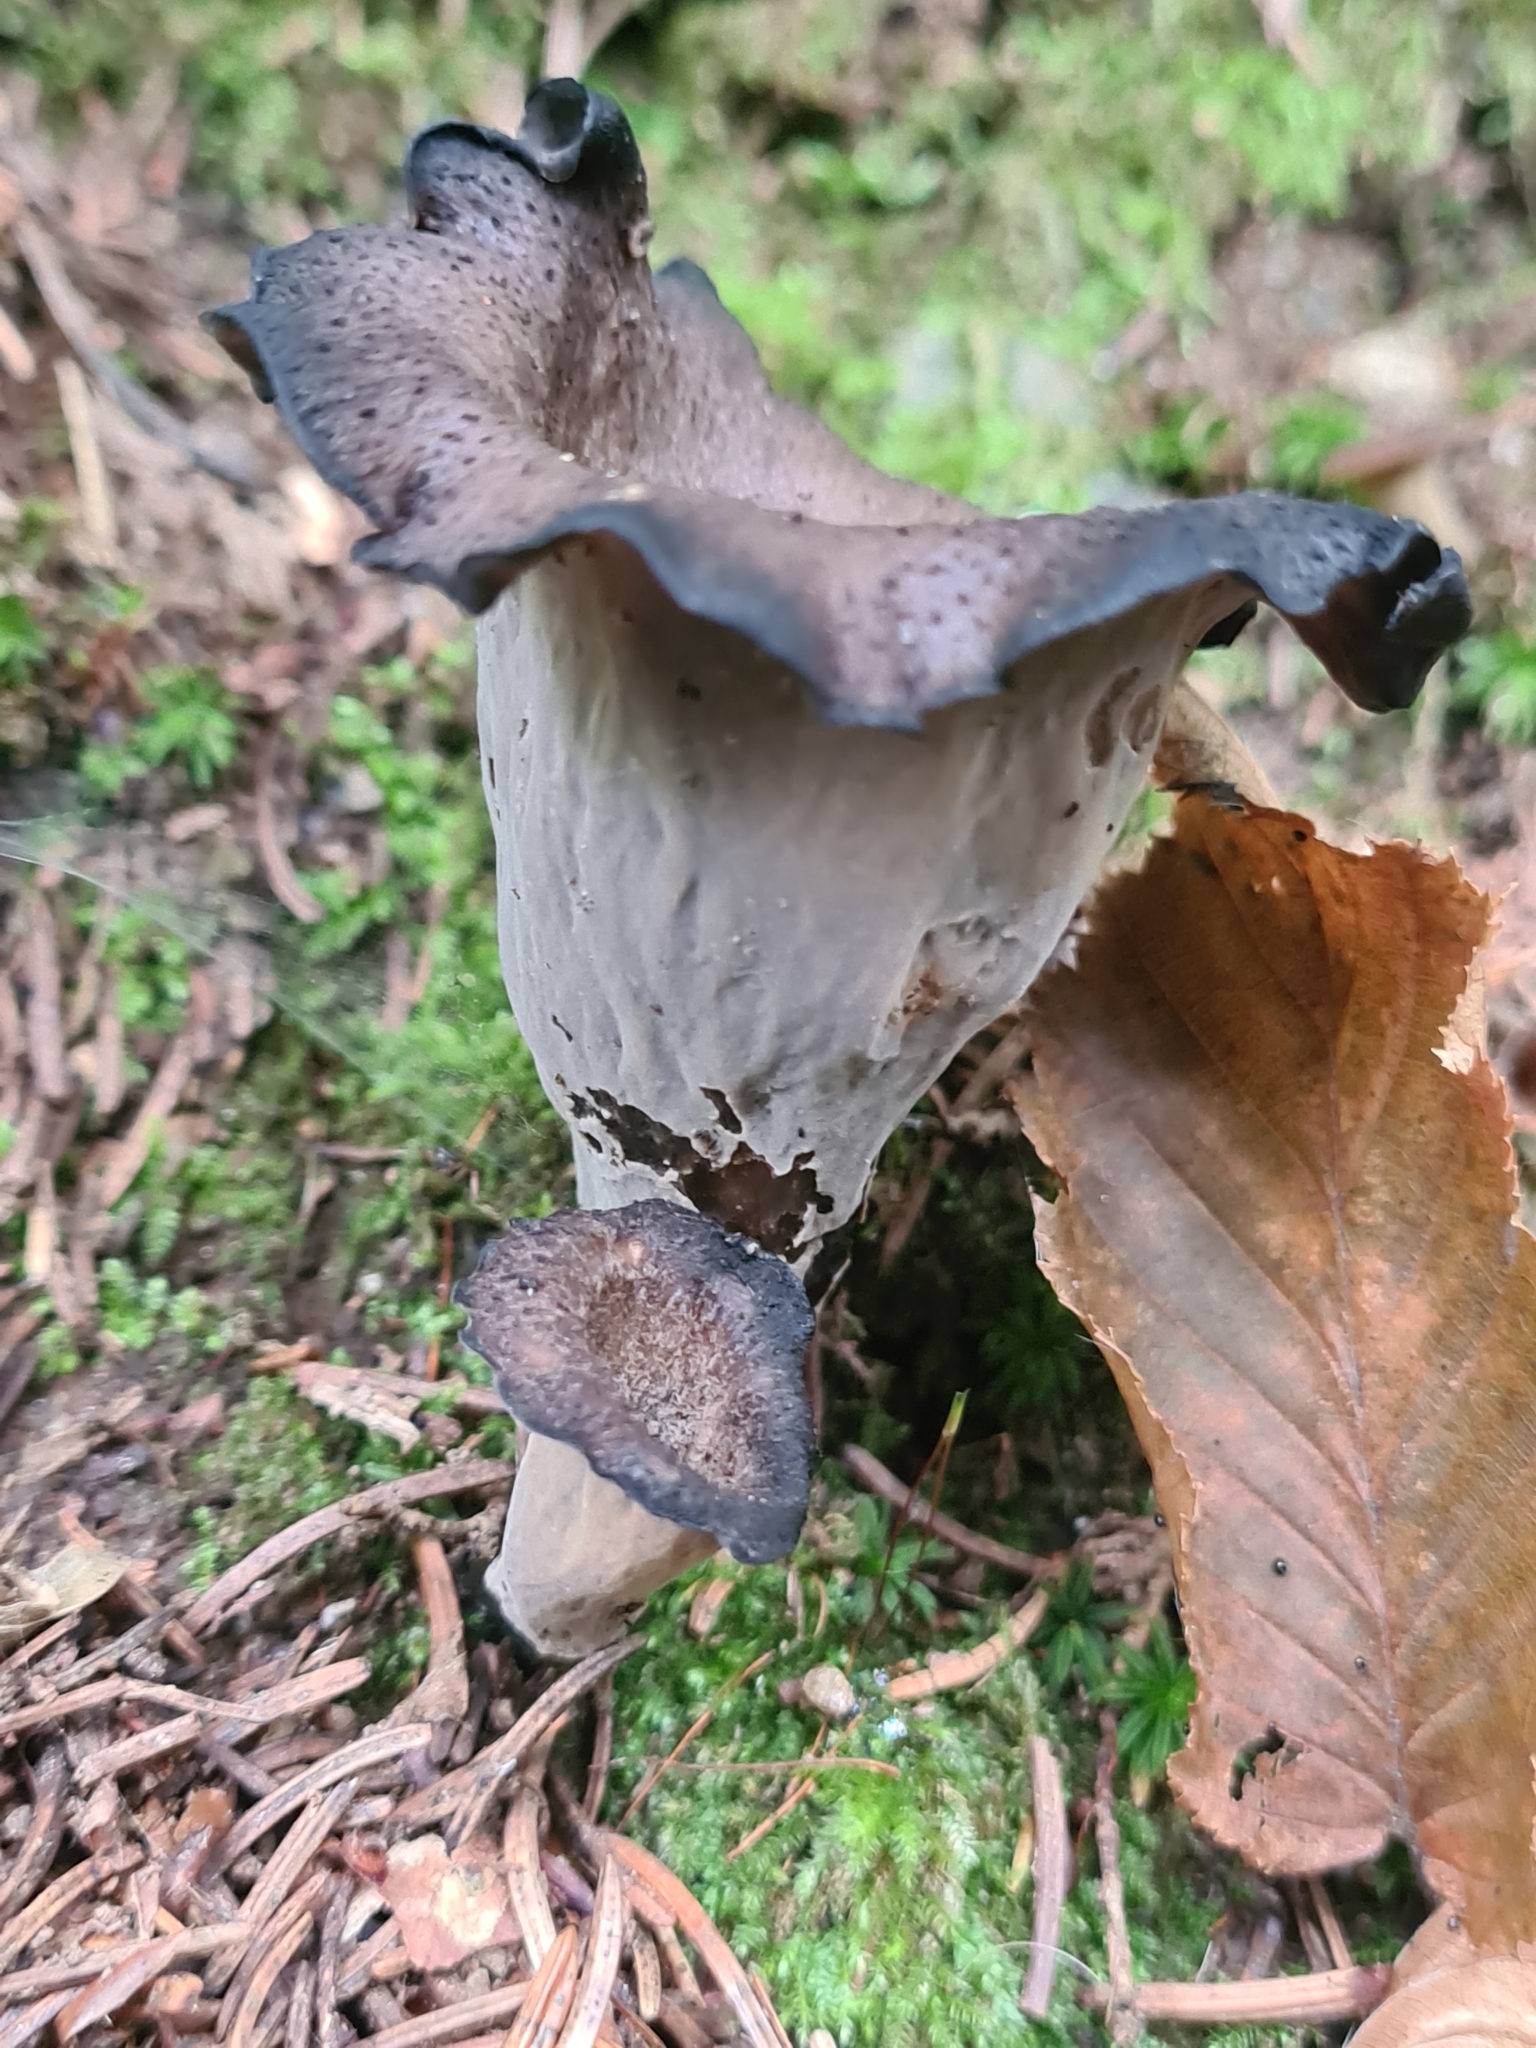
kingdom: Fungi
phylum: Basidiomycota
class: Agaricomycetes
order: Cantharellales
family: Hydnaceae
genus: Craterellus
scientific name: Craterellus cornucopioides
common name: Horn of plenty
